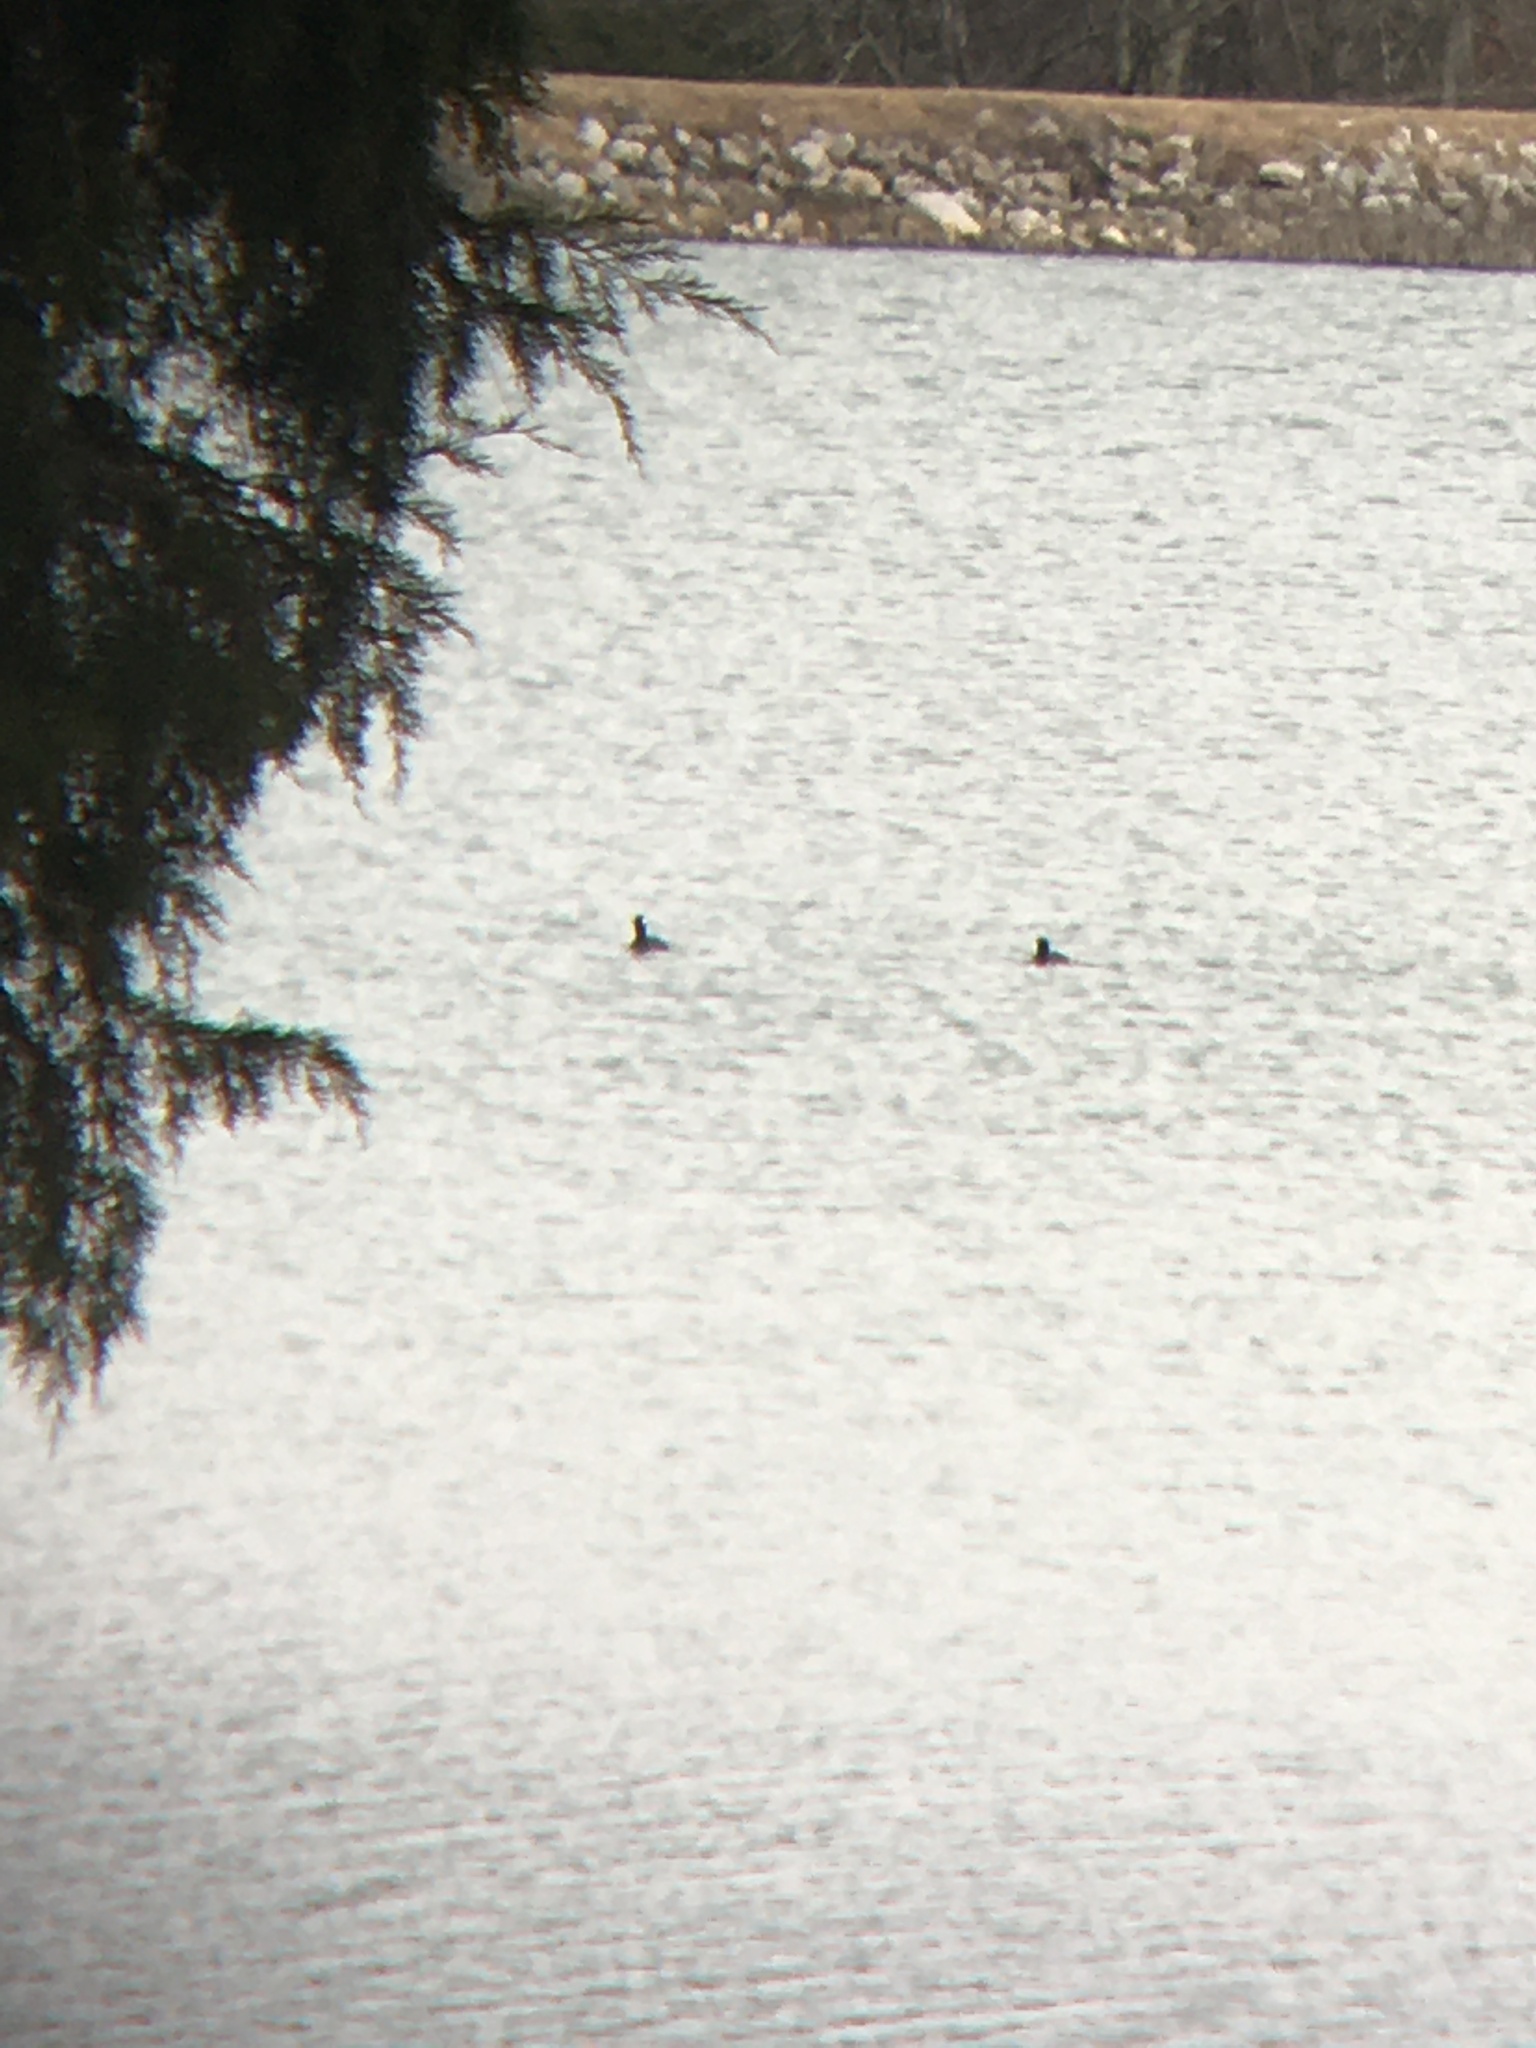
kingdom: Animalia
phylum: Chordata
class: Aves
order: Gruiformes
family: Rallidae
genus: Fulica
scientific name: Fulica americana
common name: American coot
